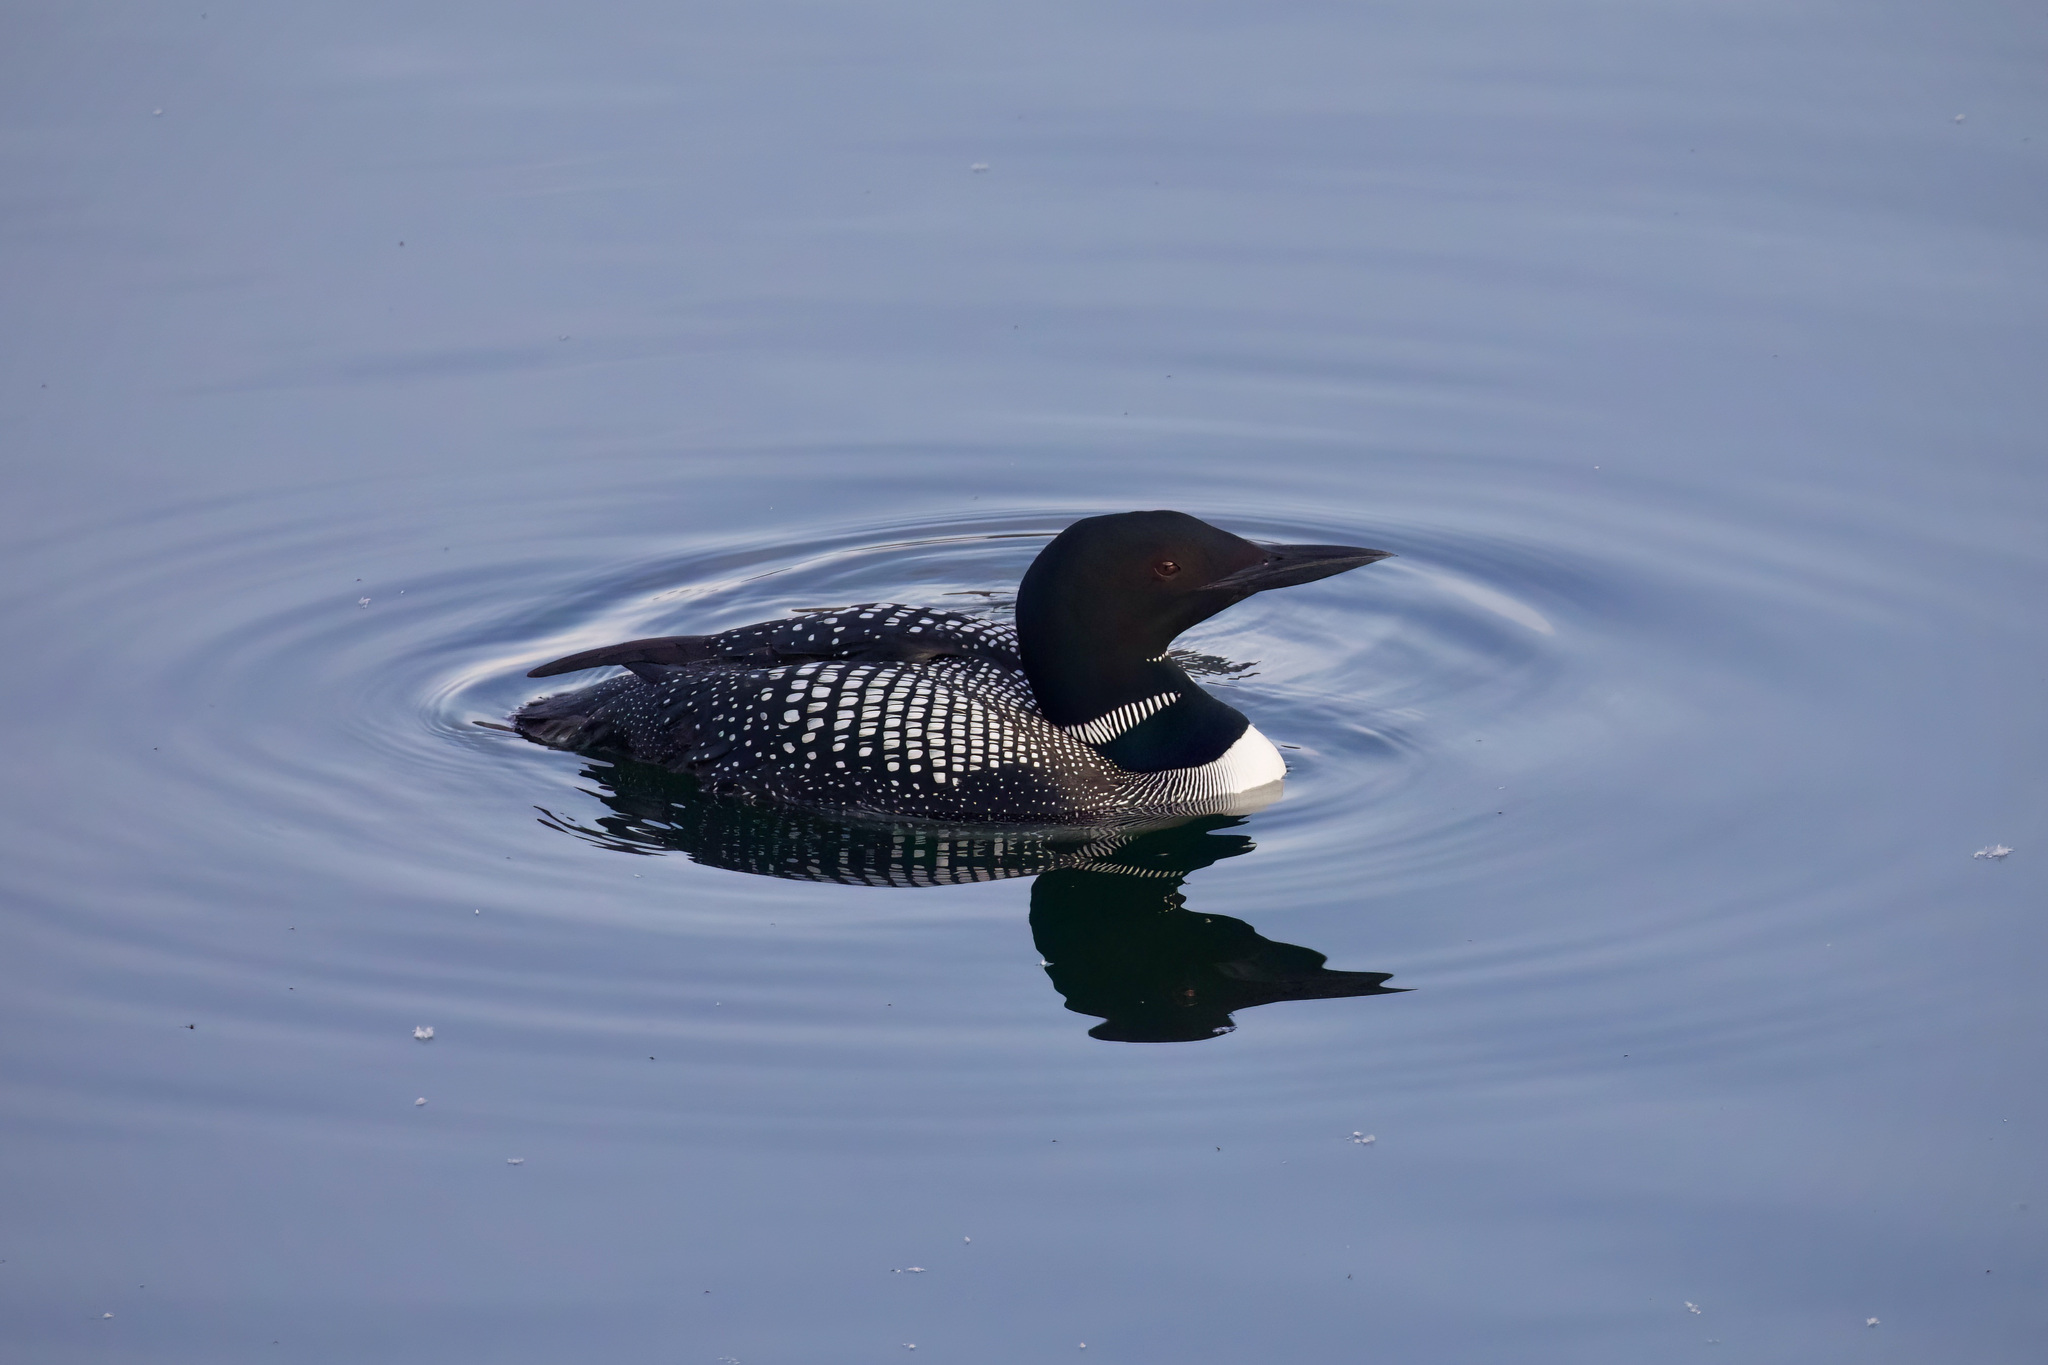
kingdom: Animalia
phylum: Chordata
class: Aves
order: Gaviiformes
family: Gaviidae
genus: Gavia
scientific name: Gavia immer
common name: Common loon
